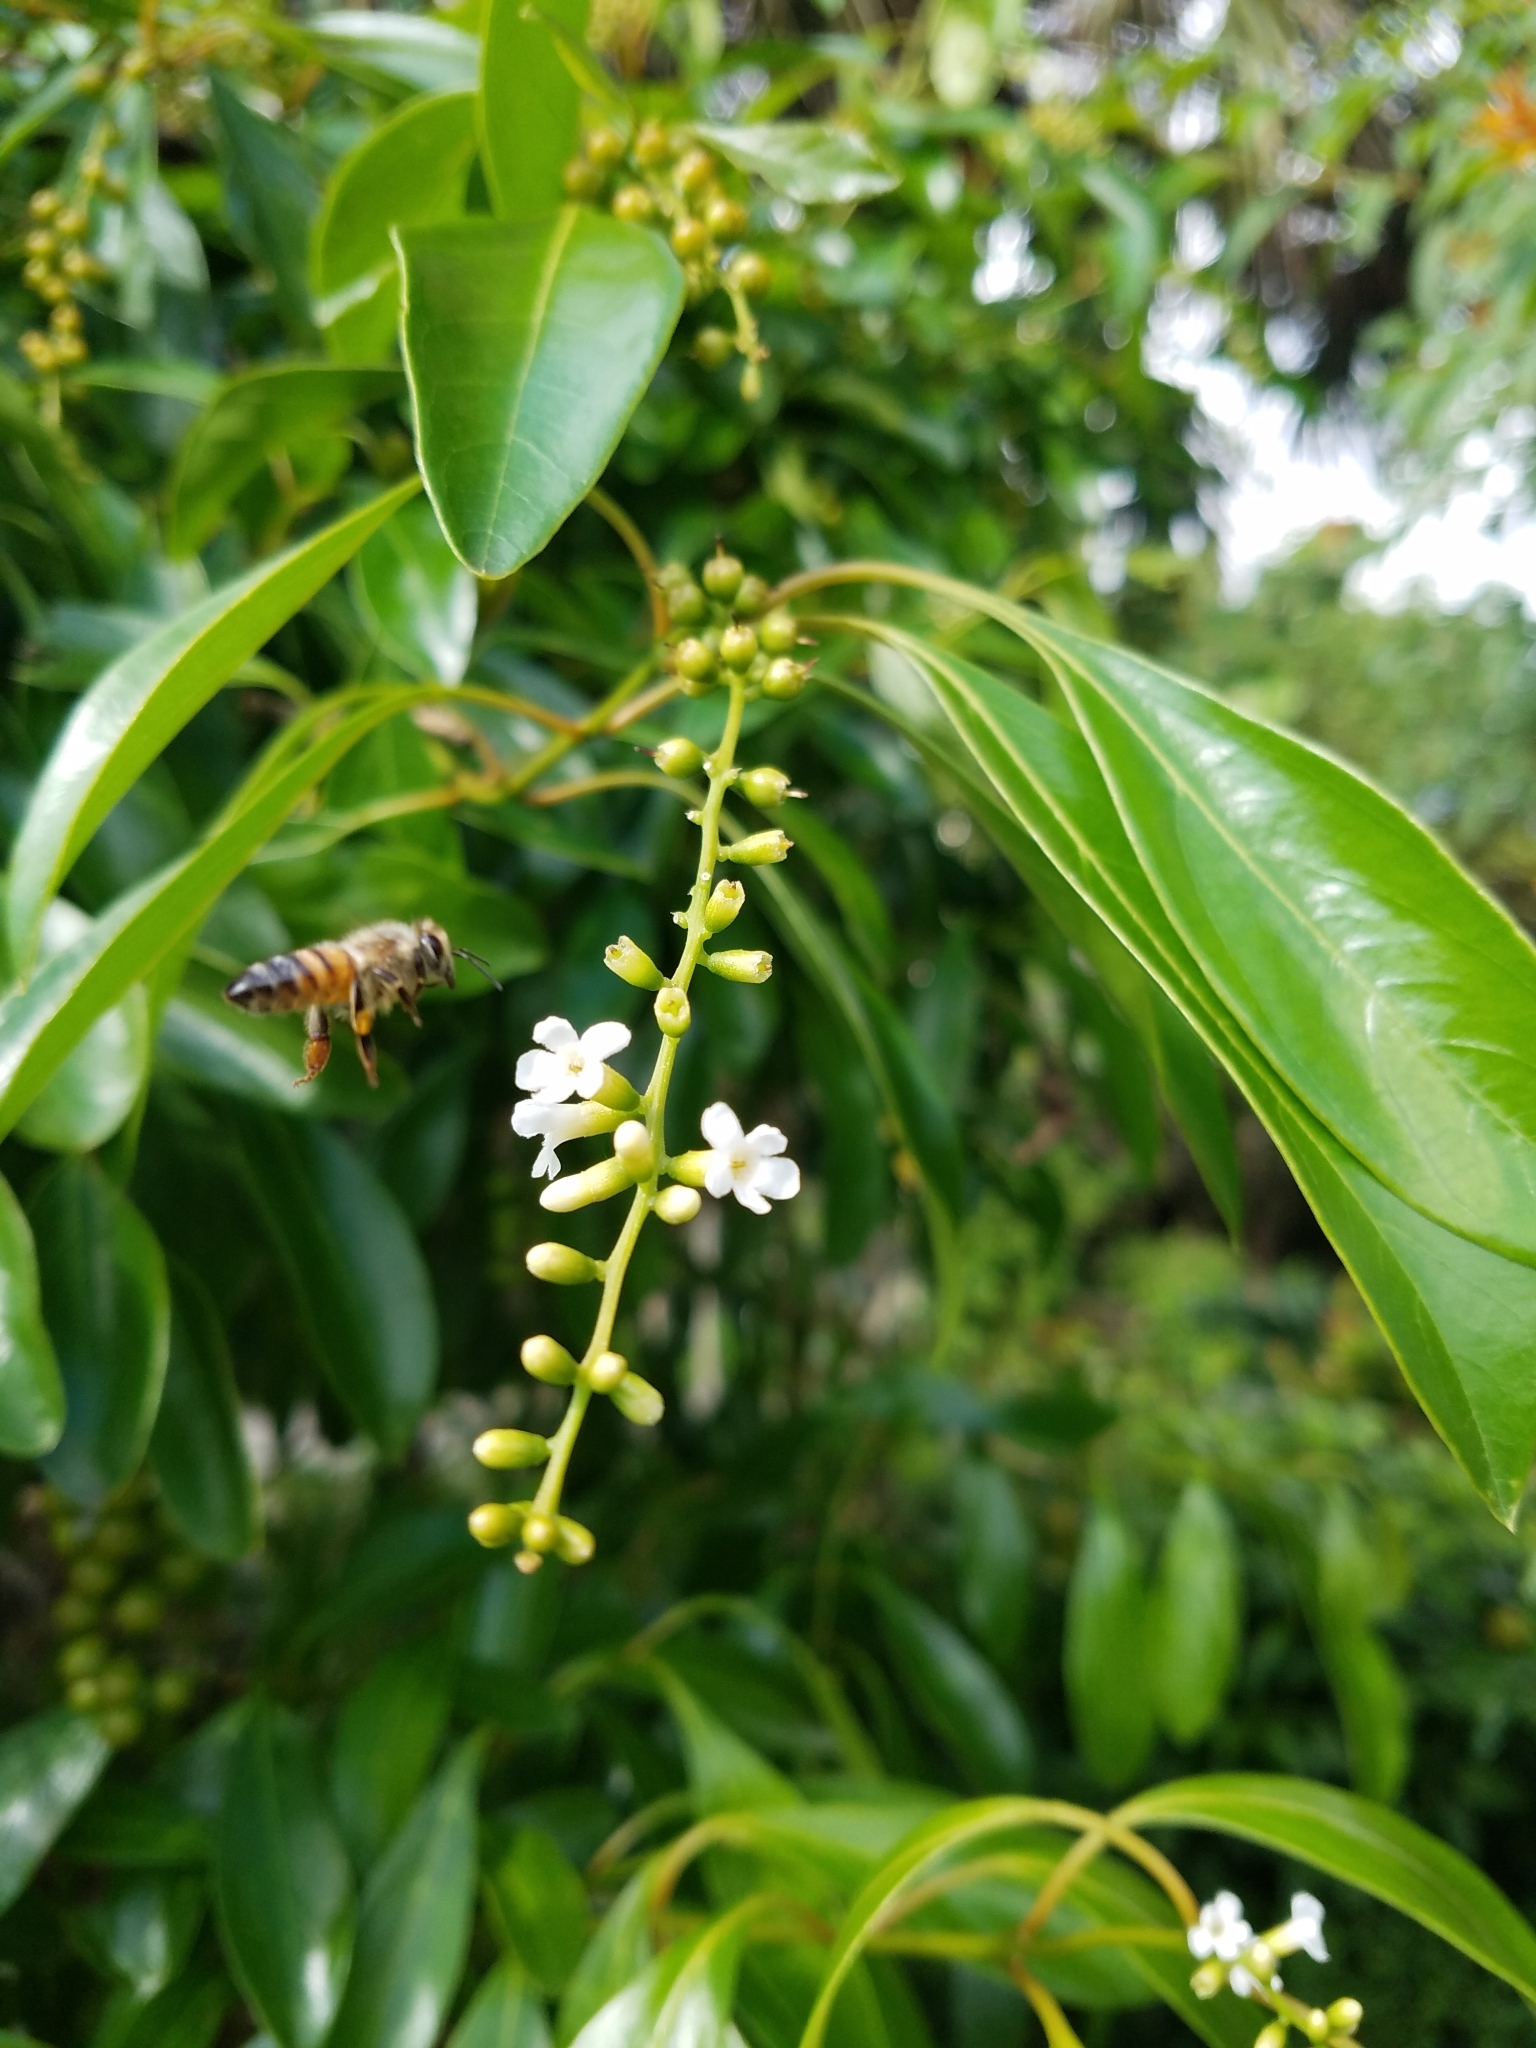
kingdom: Animalia
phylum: Arthropoda
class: Insecta
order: Hymenoptera
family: Apidae
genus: Apis
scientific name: Apis mellifera
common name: Honey bee
